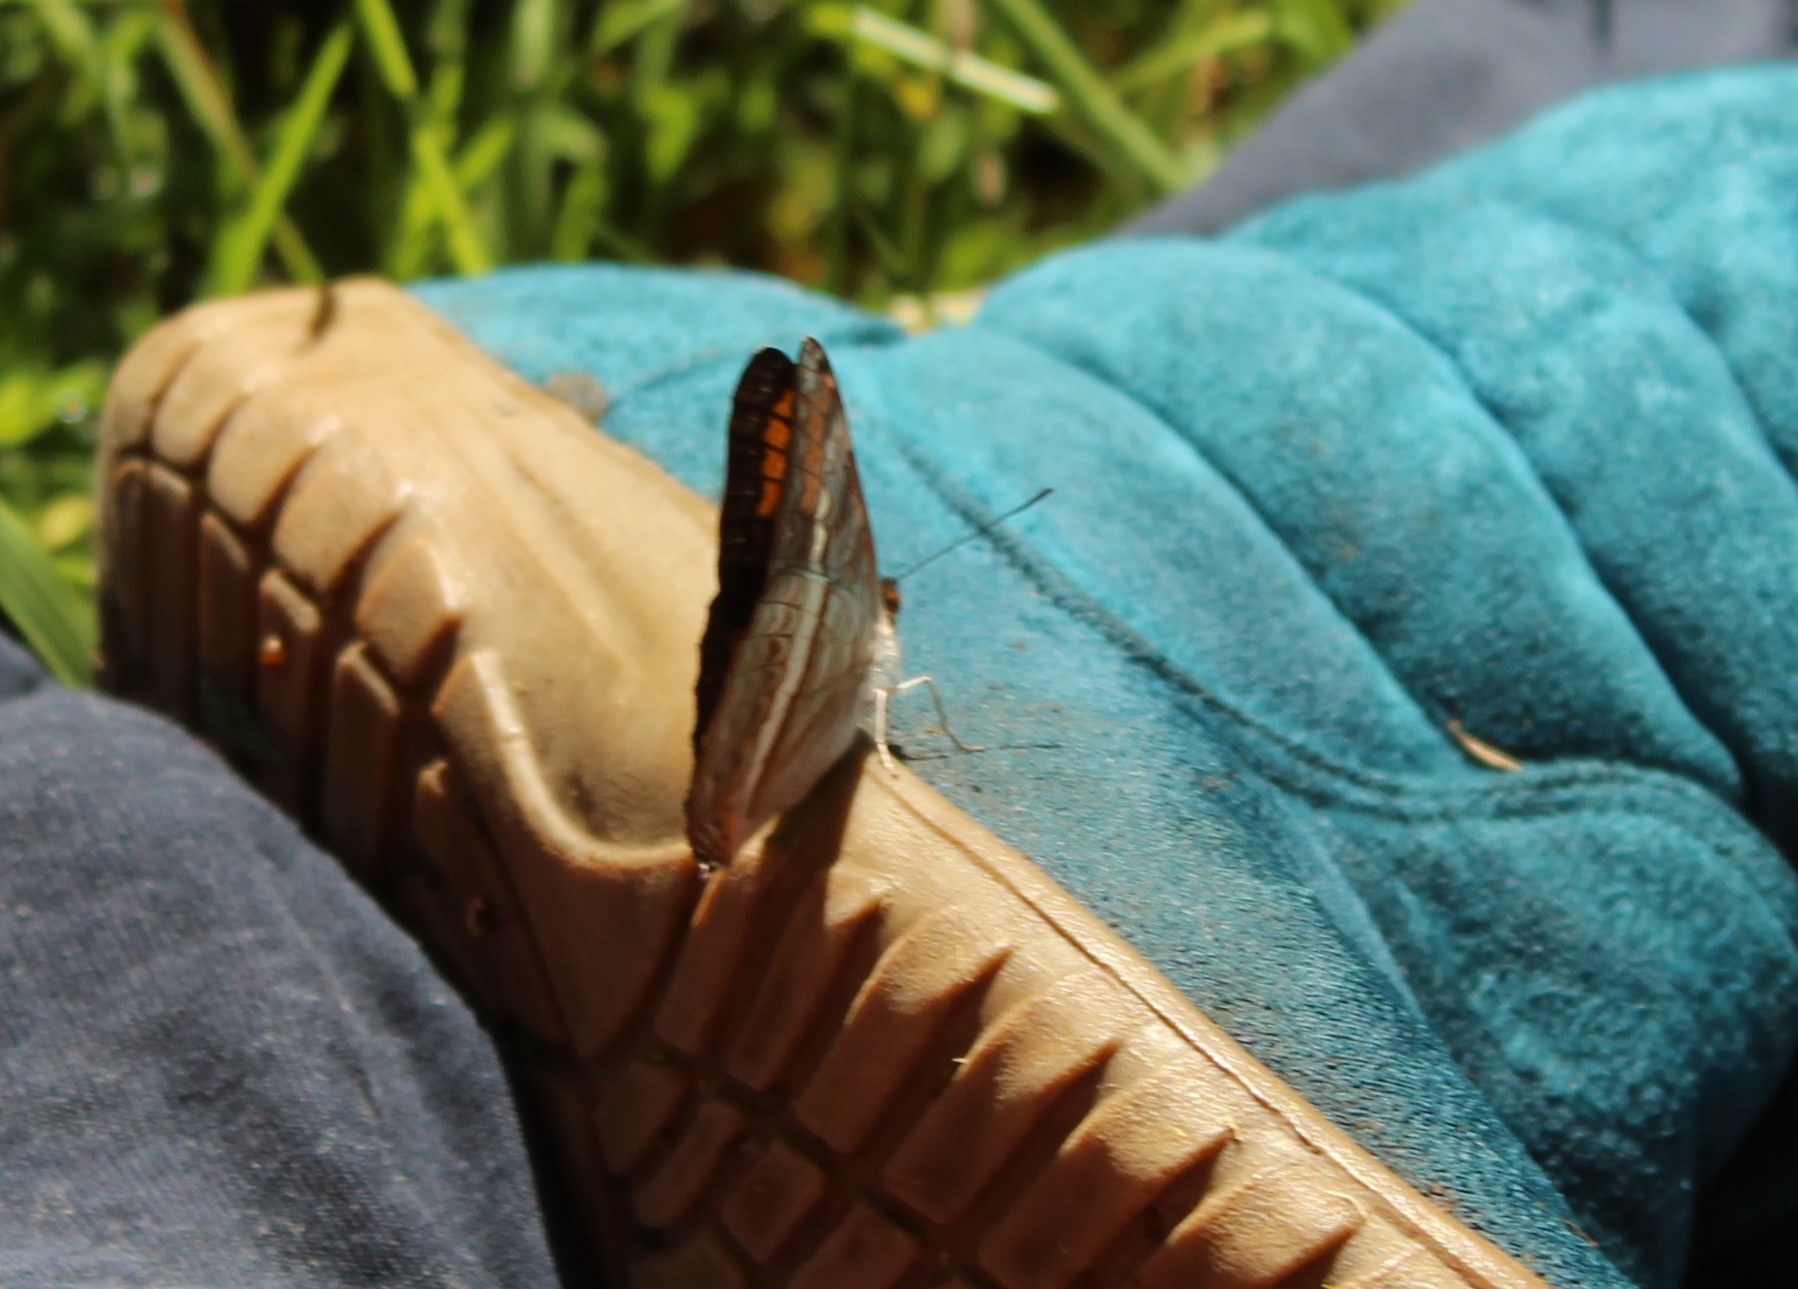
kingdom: Animalia
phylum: Arthropoda
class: Insecta
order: Lepidoptera
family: Nymphalidae
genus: Limenitis
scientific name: Limenitis corcyra
